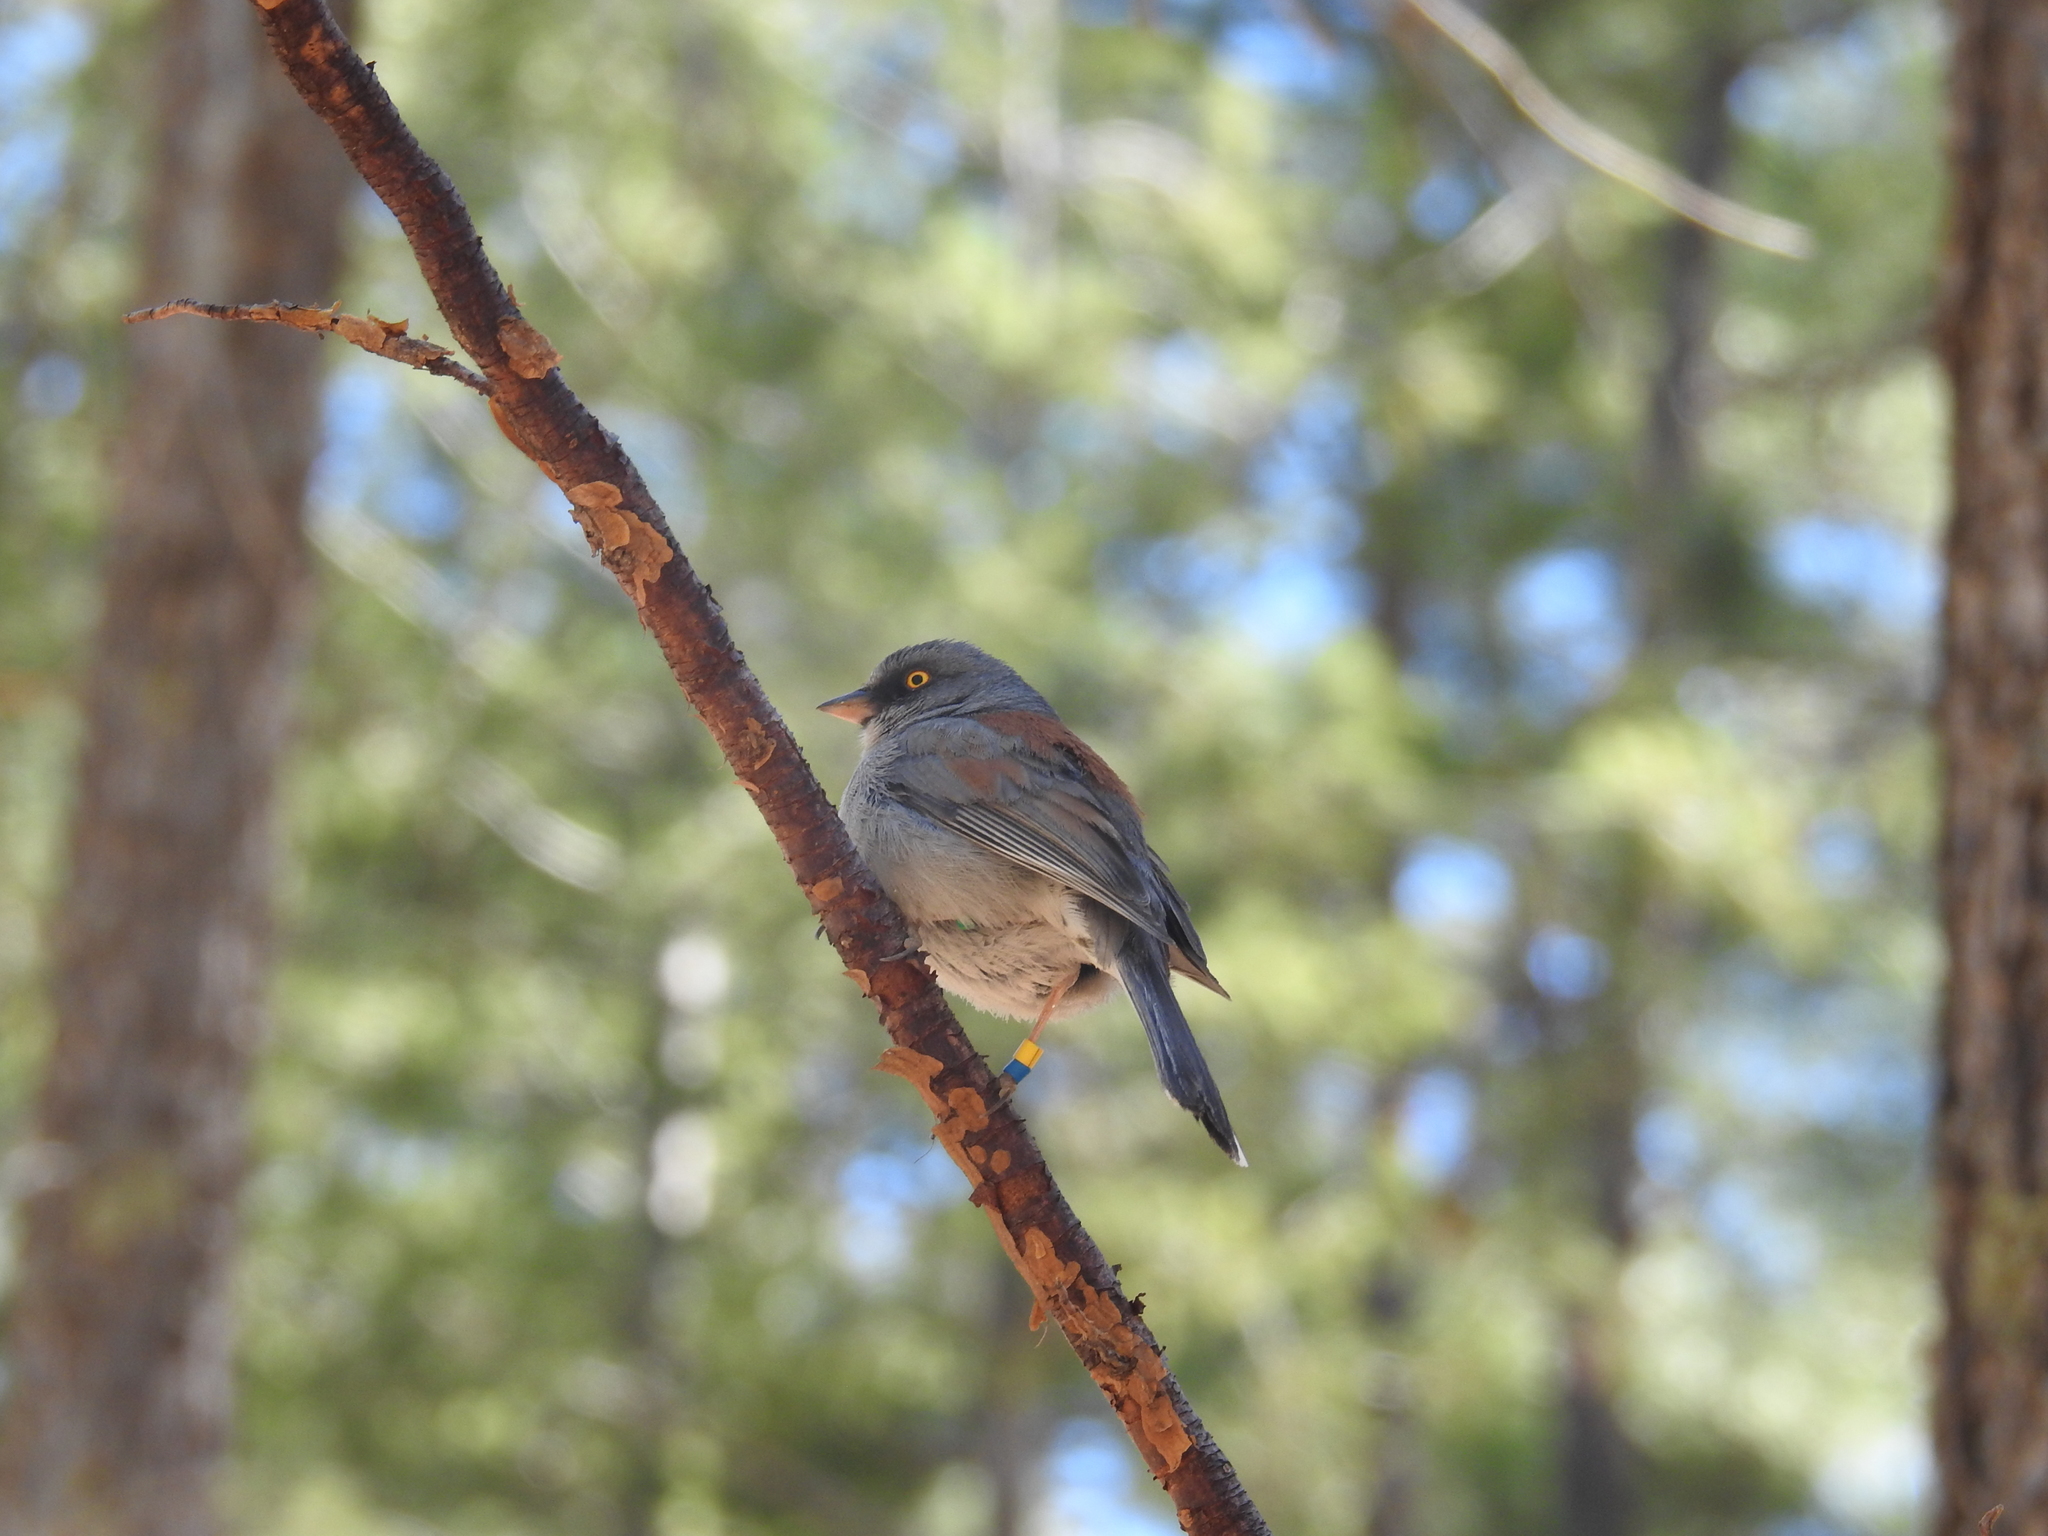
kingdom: Animalia
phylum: Chordata
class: Aves
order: Passeriformes
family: Passerellidae
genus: Junco
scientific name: Junco phaeonotus
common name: Yellow-eyed junco
